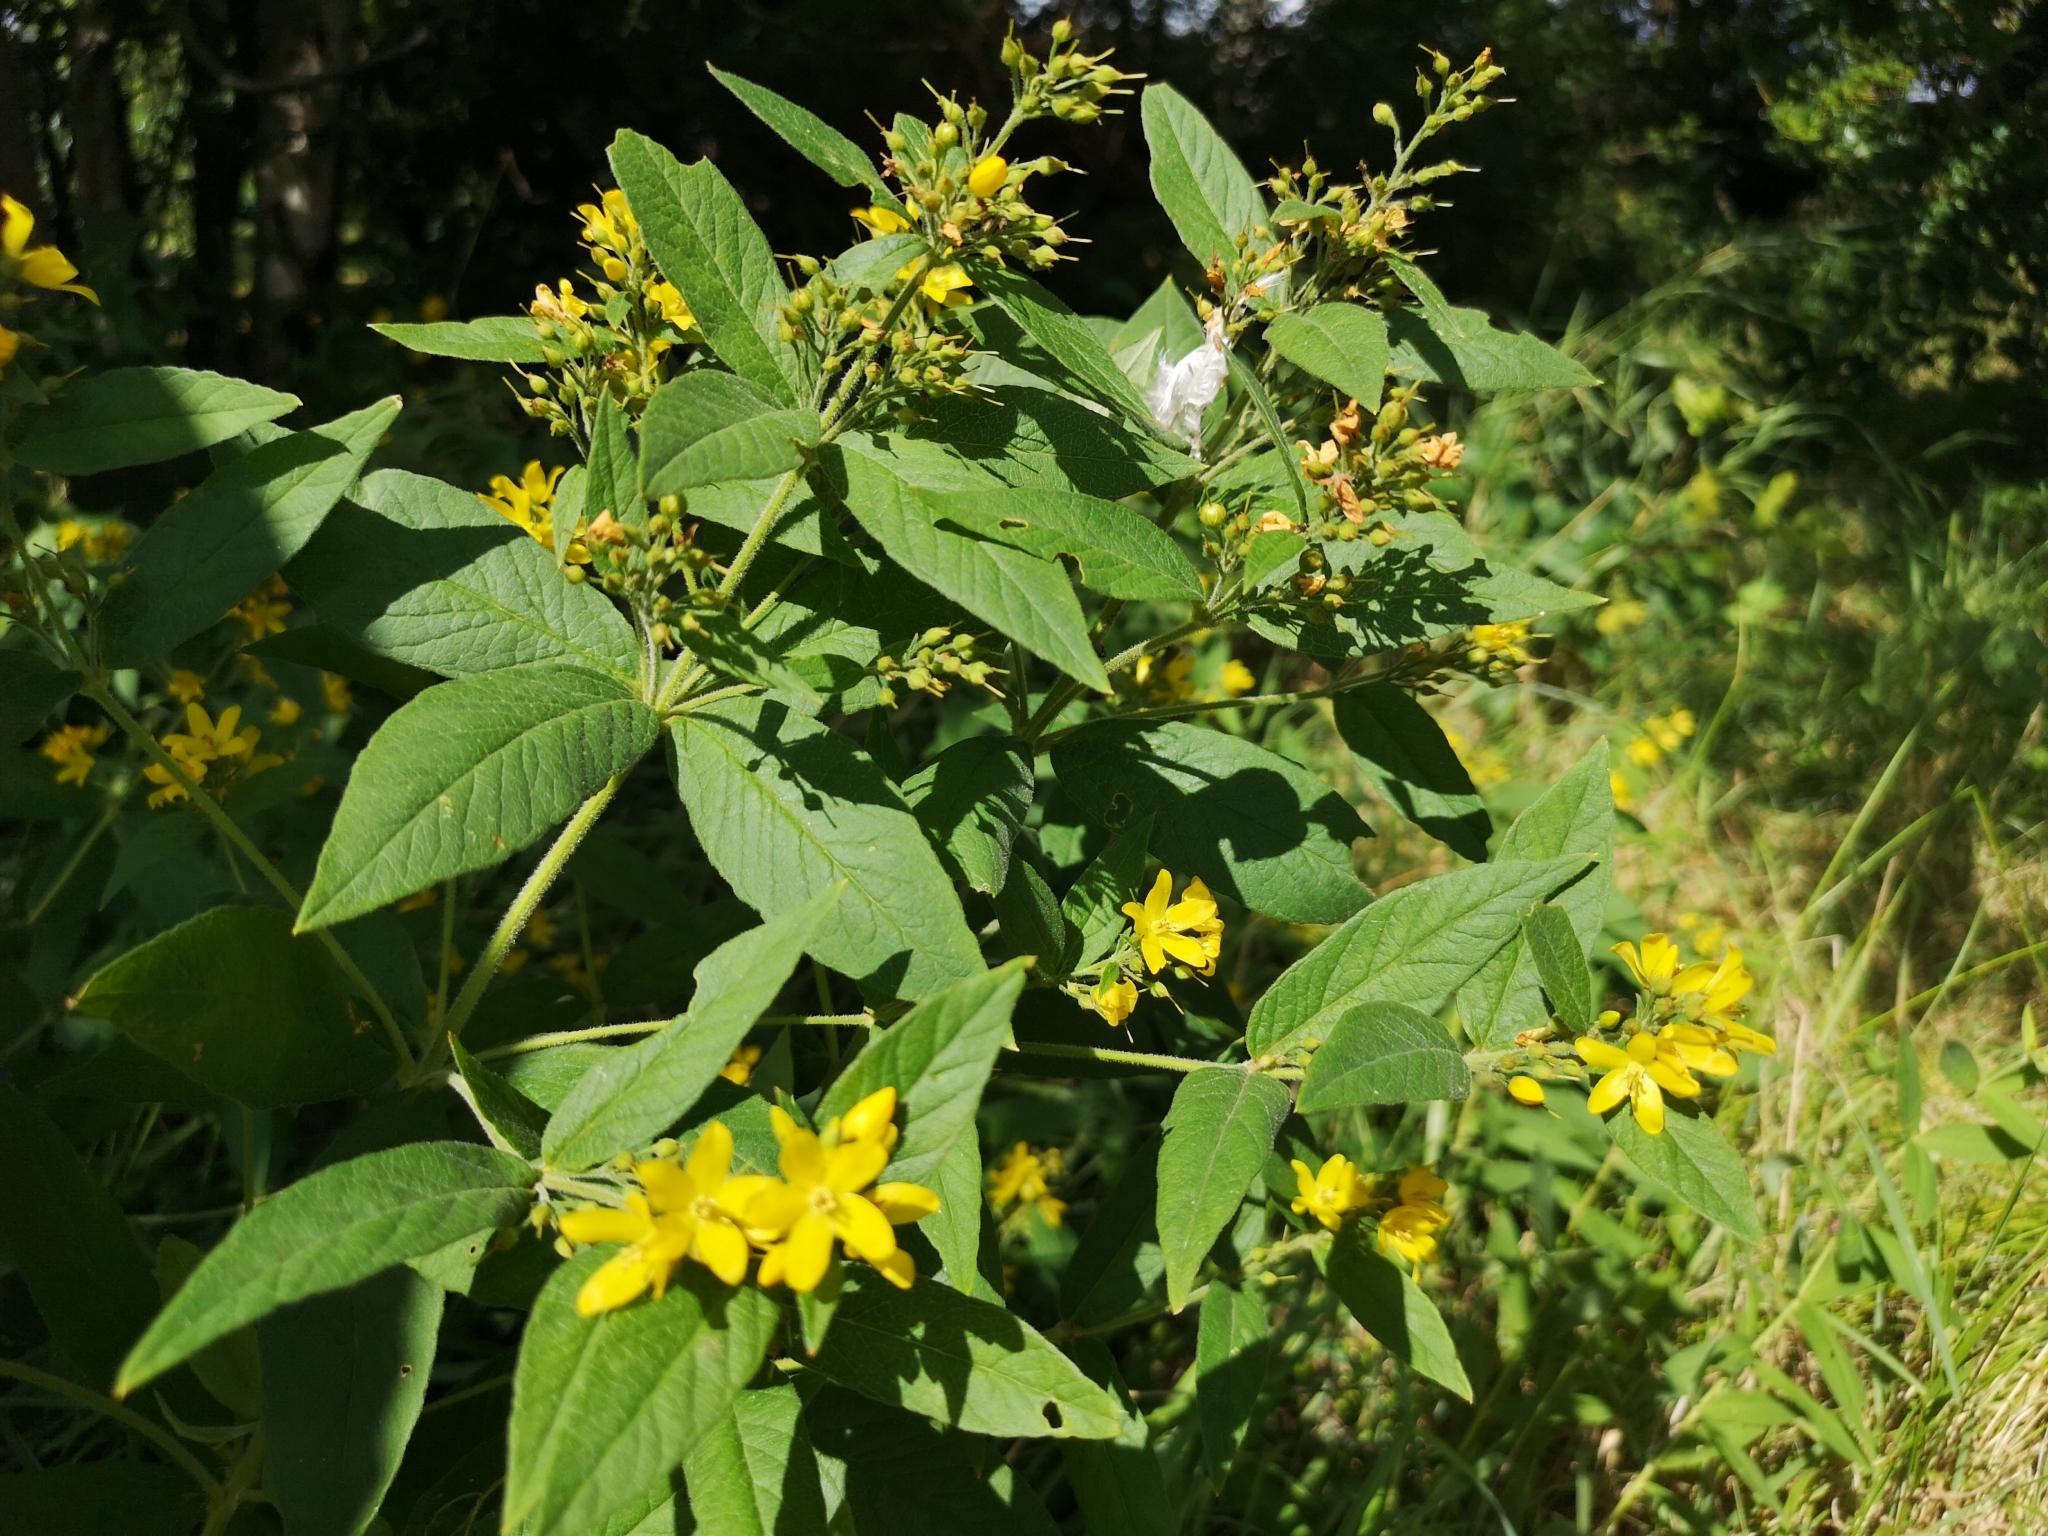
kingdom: Plantae
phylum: Tracheophyta
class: Magnoliopsida
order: Ericales
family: Primulaceae
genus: Lysimachia
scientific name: Lysimachia vulgaris
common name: Yellow loosestrife
